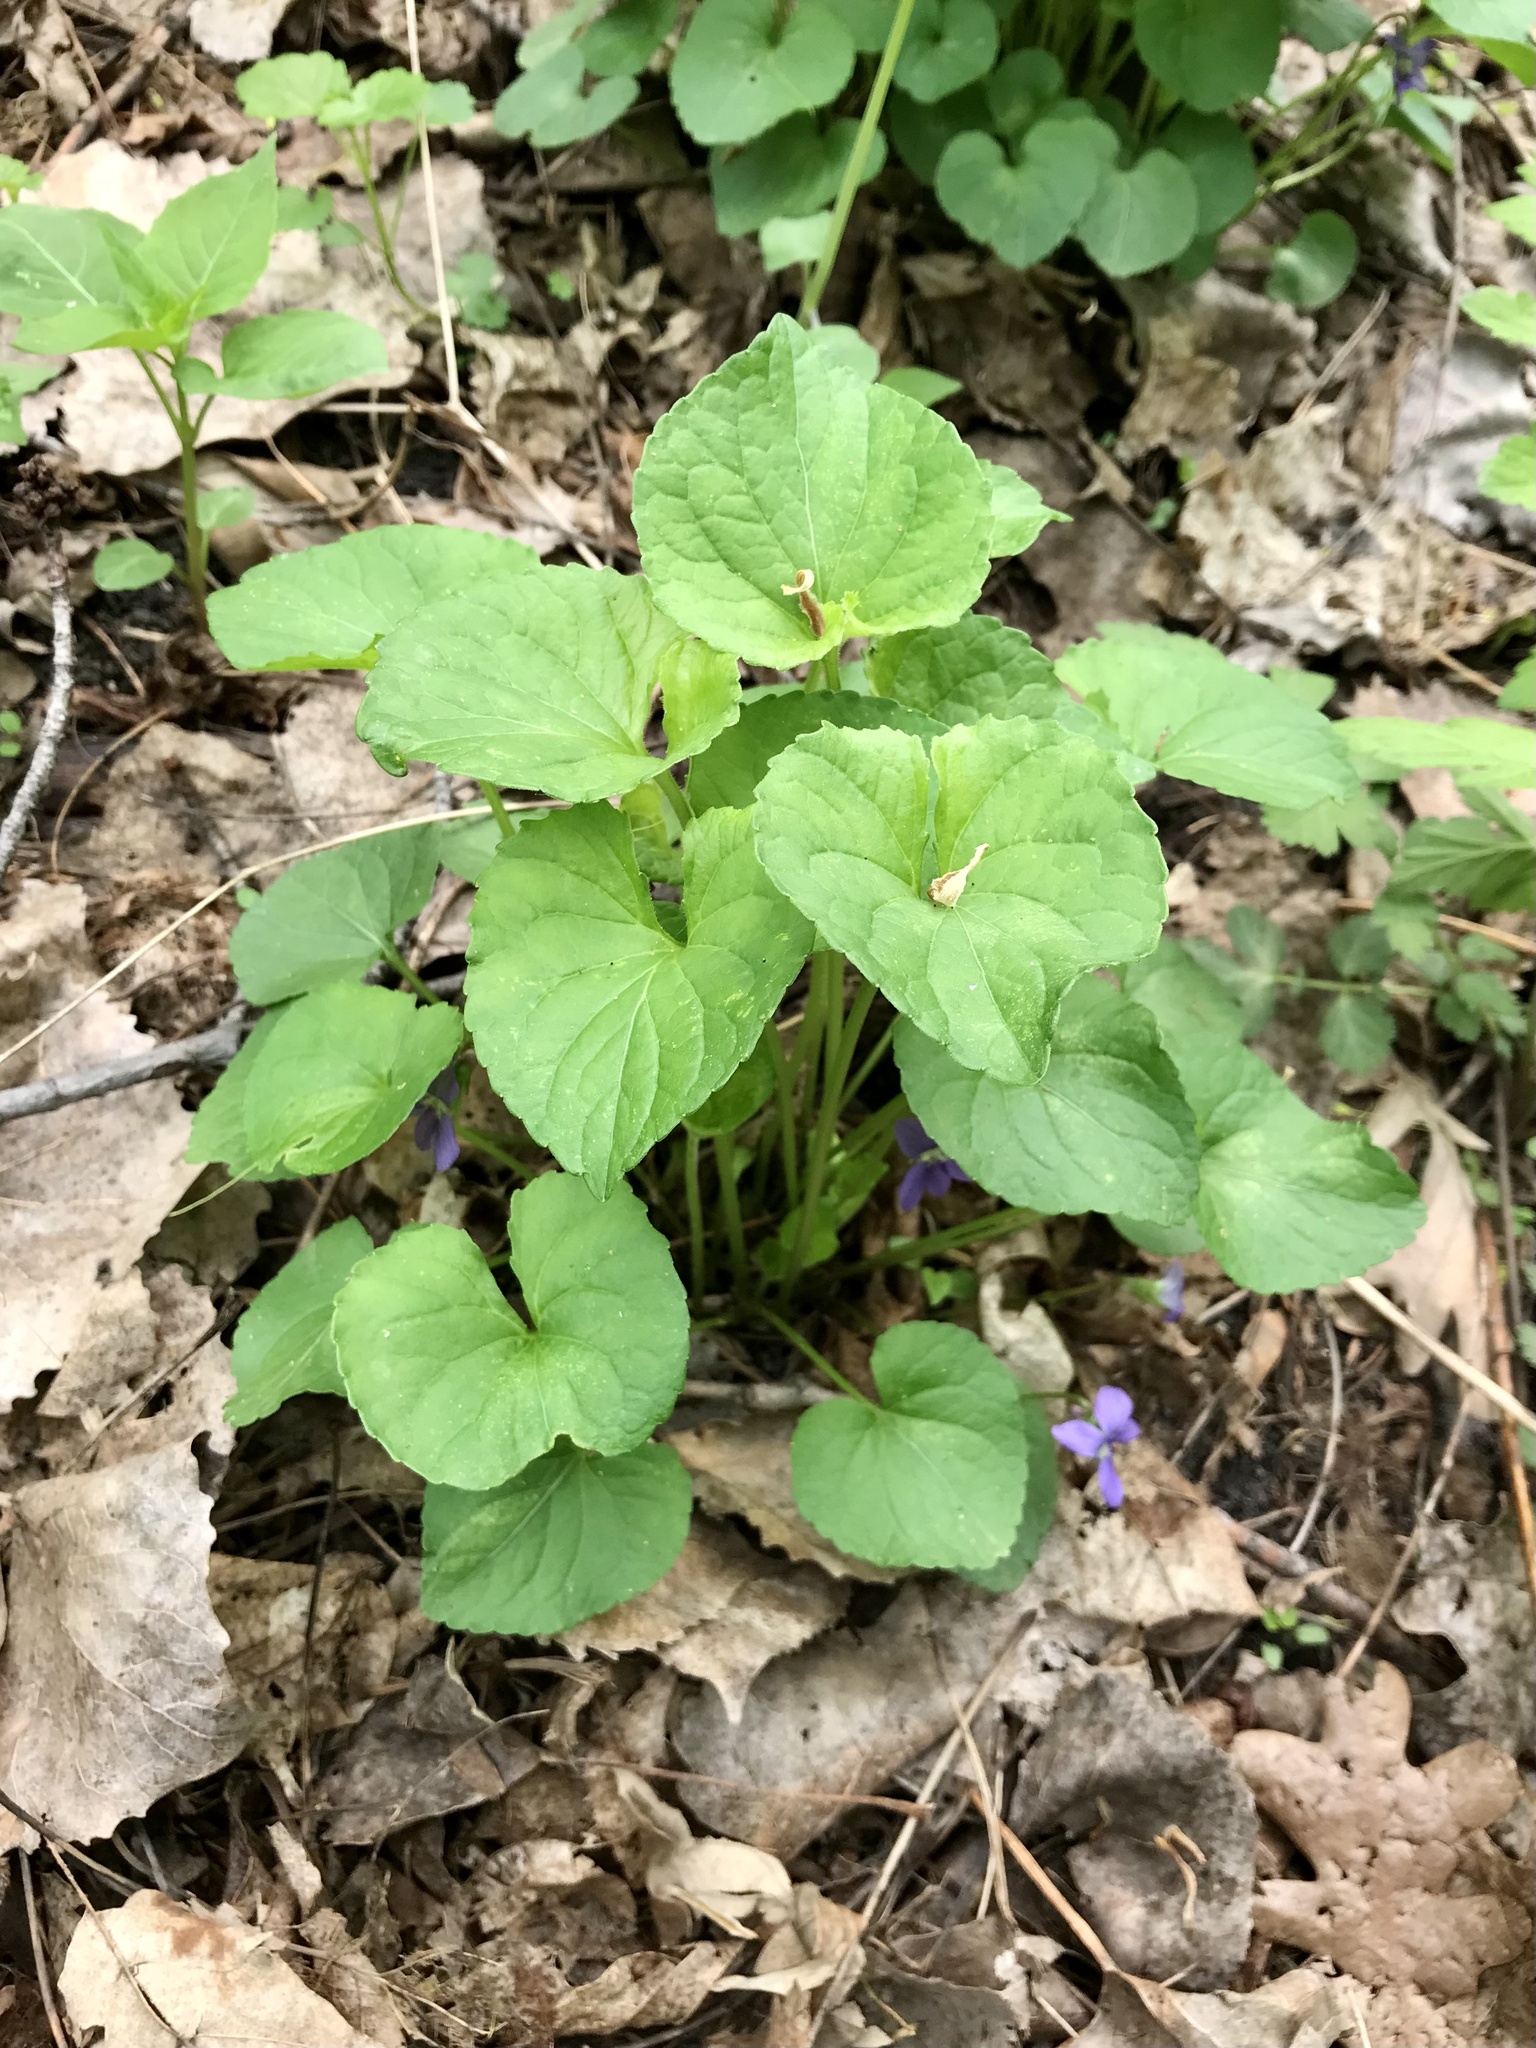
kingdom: Plantae
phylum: Tracheophyta
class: Magnoliopsida
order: Malpighiales
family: Violaceae
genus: Viola
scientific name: Viola sororia
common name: Dooryard violet
